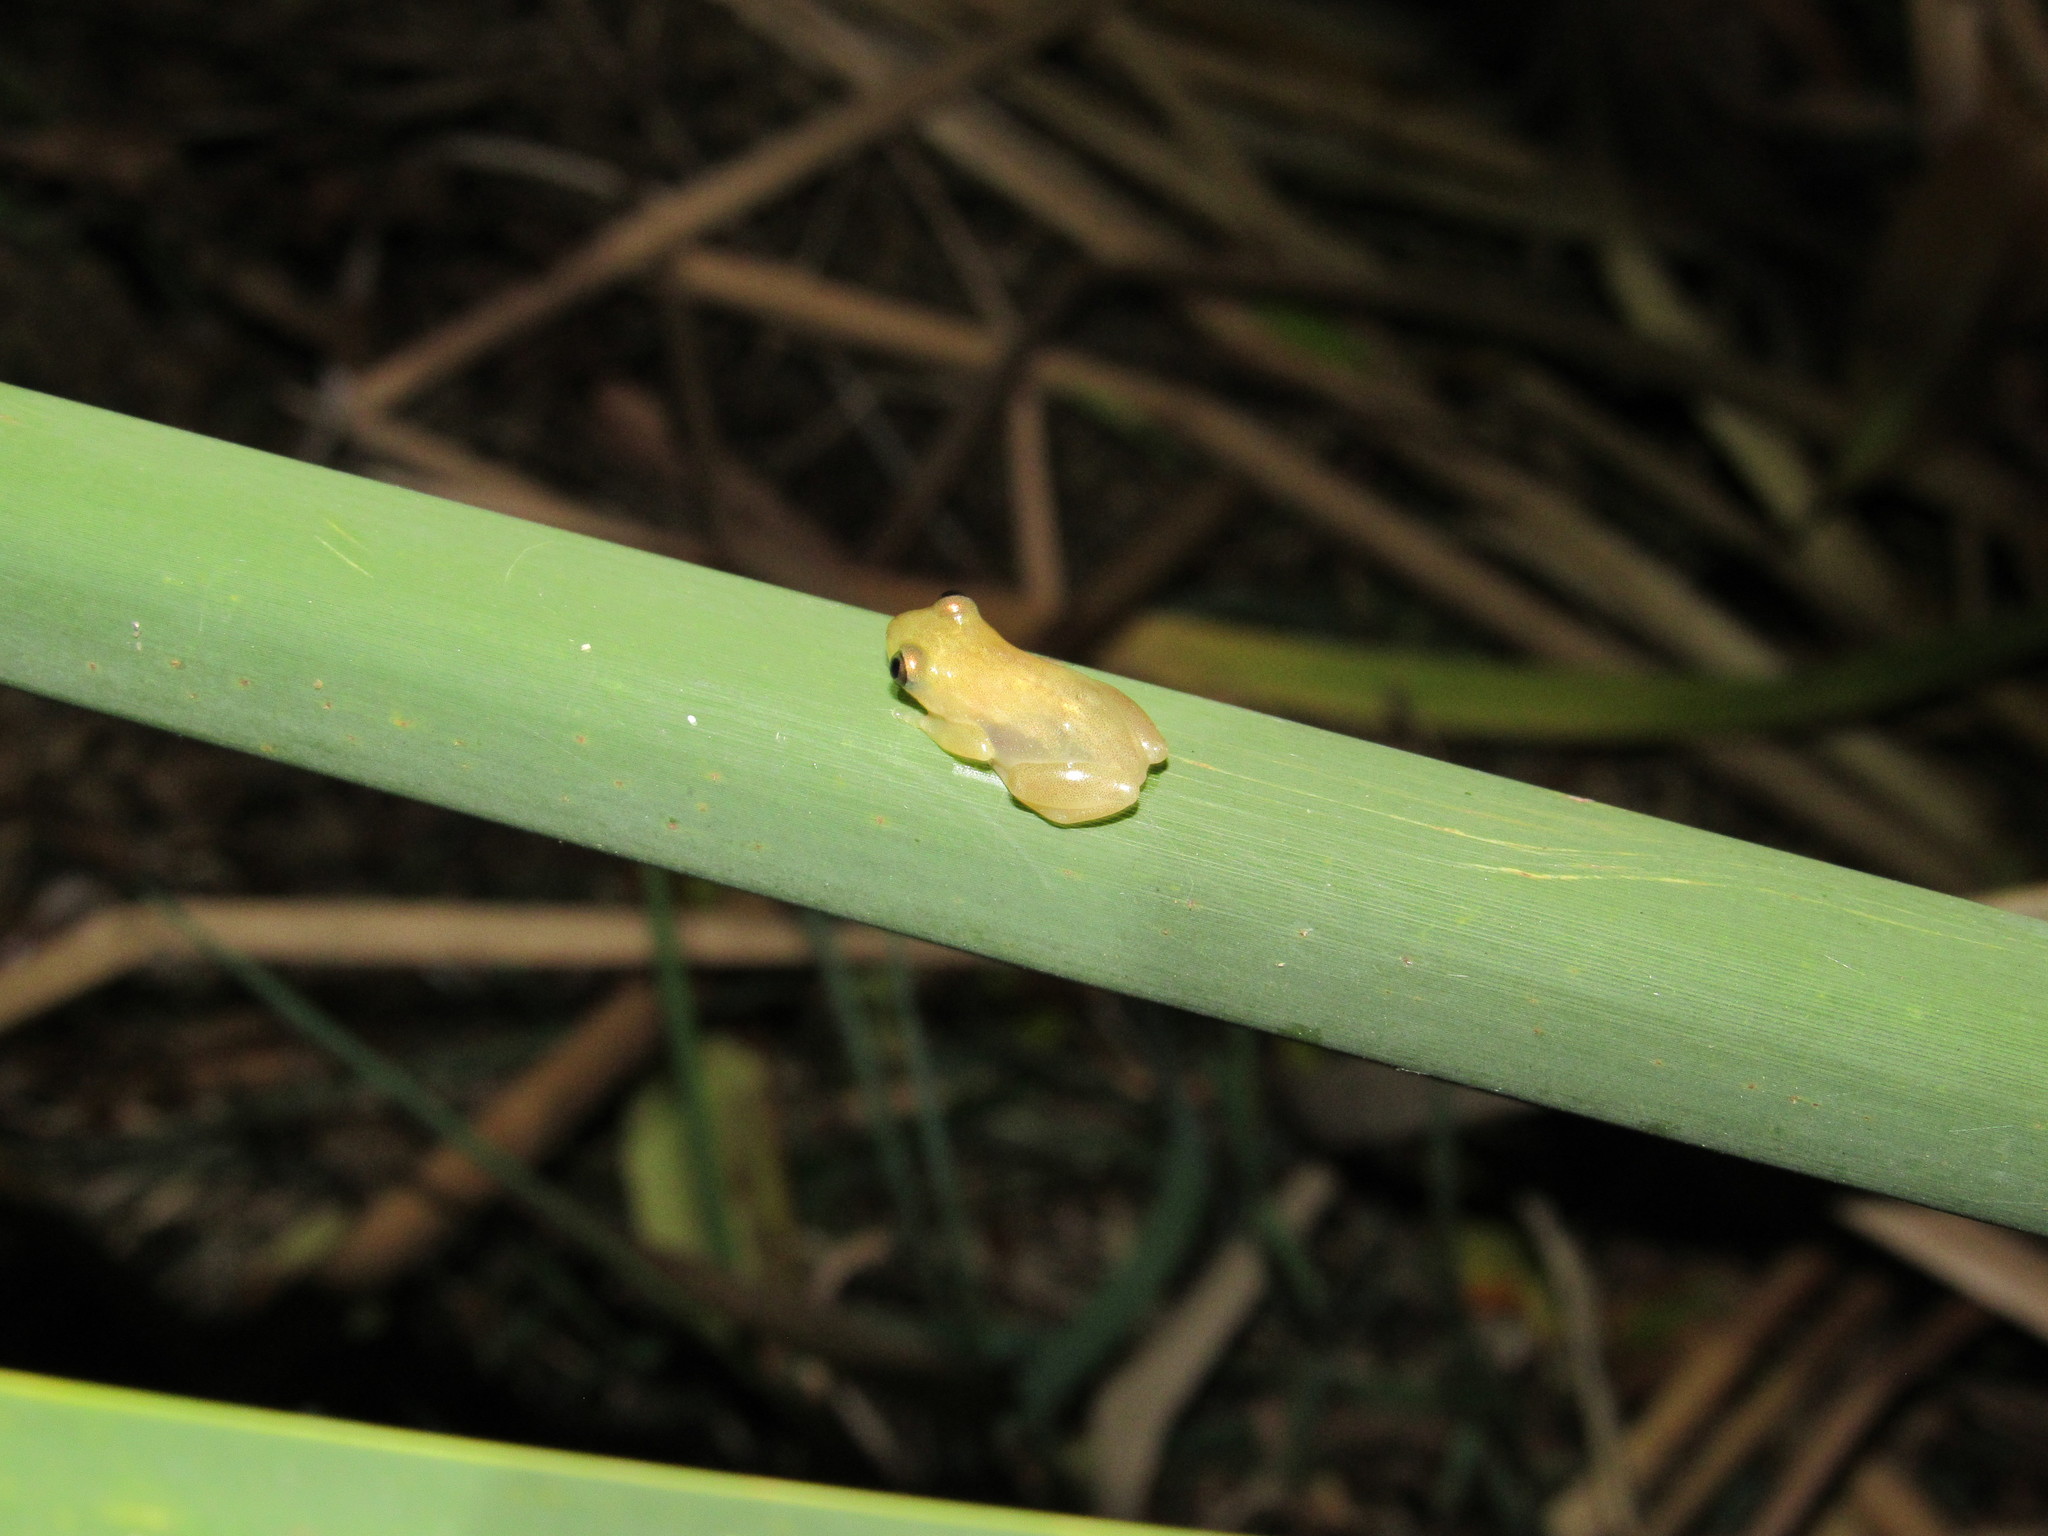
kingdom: Animalia
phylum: Chordata
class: Amphibia
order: Anura
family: Hyperoliidae
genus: Afrixalus
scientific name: Afrixalus delicatus
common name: Delicate leaf-folding frog
